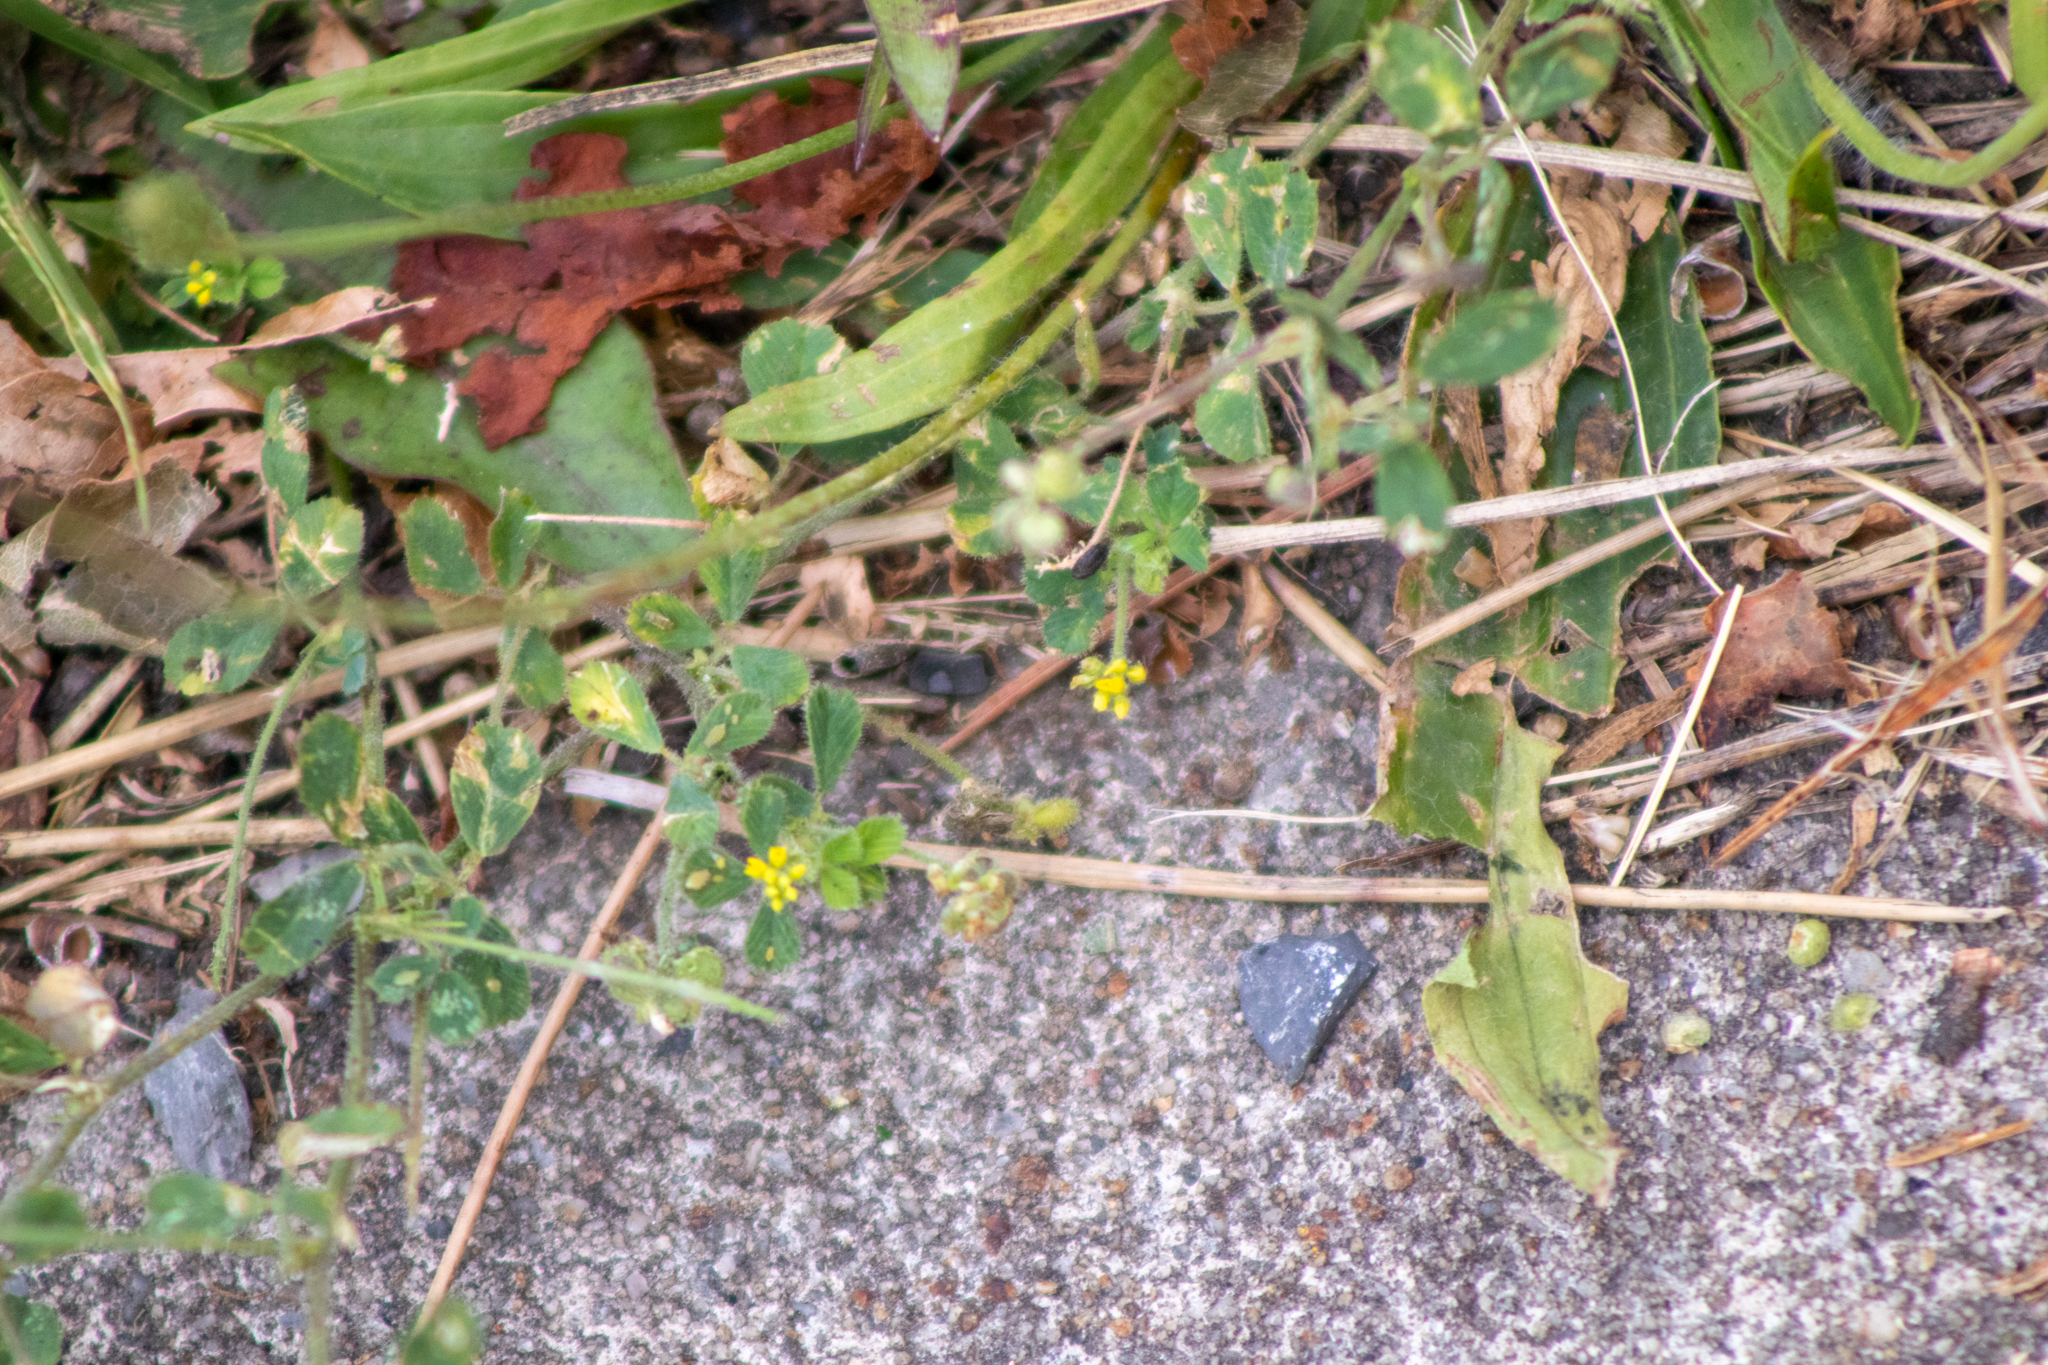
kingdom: Plantae
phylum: Tracheophyta
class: Magnoliopsida
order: Fabales
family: Fabaceae
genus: Medicago
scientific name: Medicago lupulina
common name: Black medick
